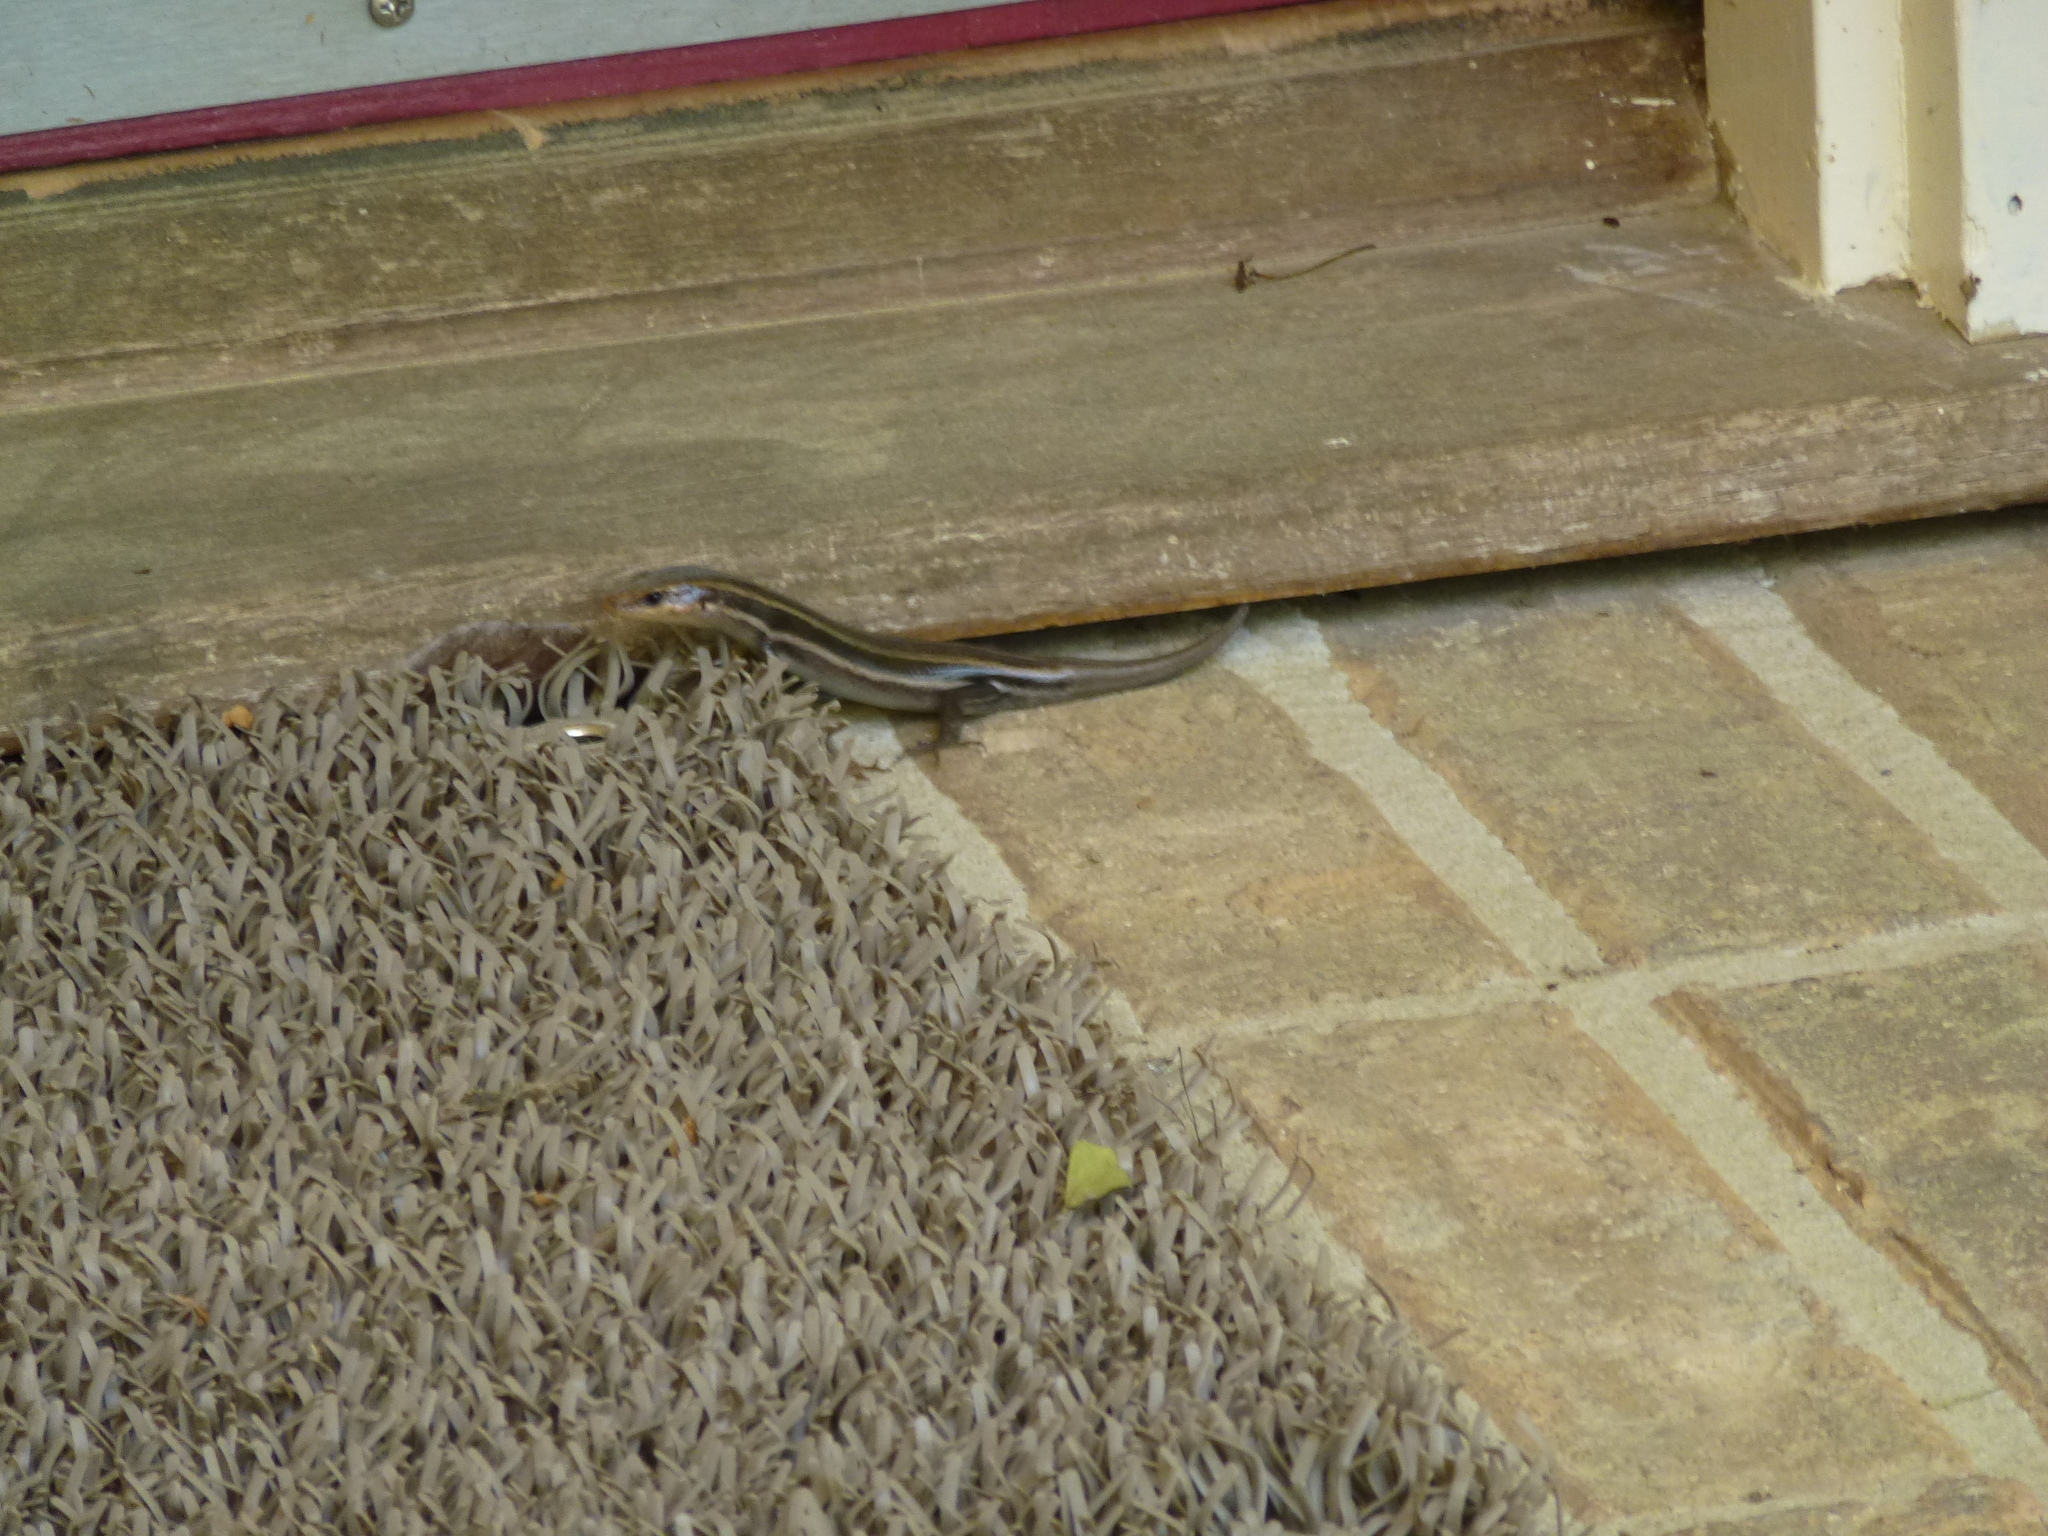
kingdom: Animalia
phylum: Chordata
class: Squamata
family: Scincidae
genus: Plestiodon
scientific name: Plestiodon fasciatus
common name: Five-lined skink
